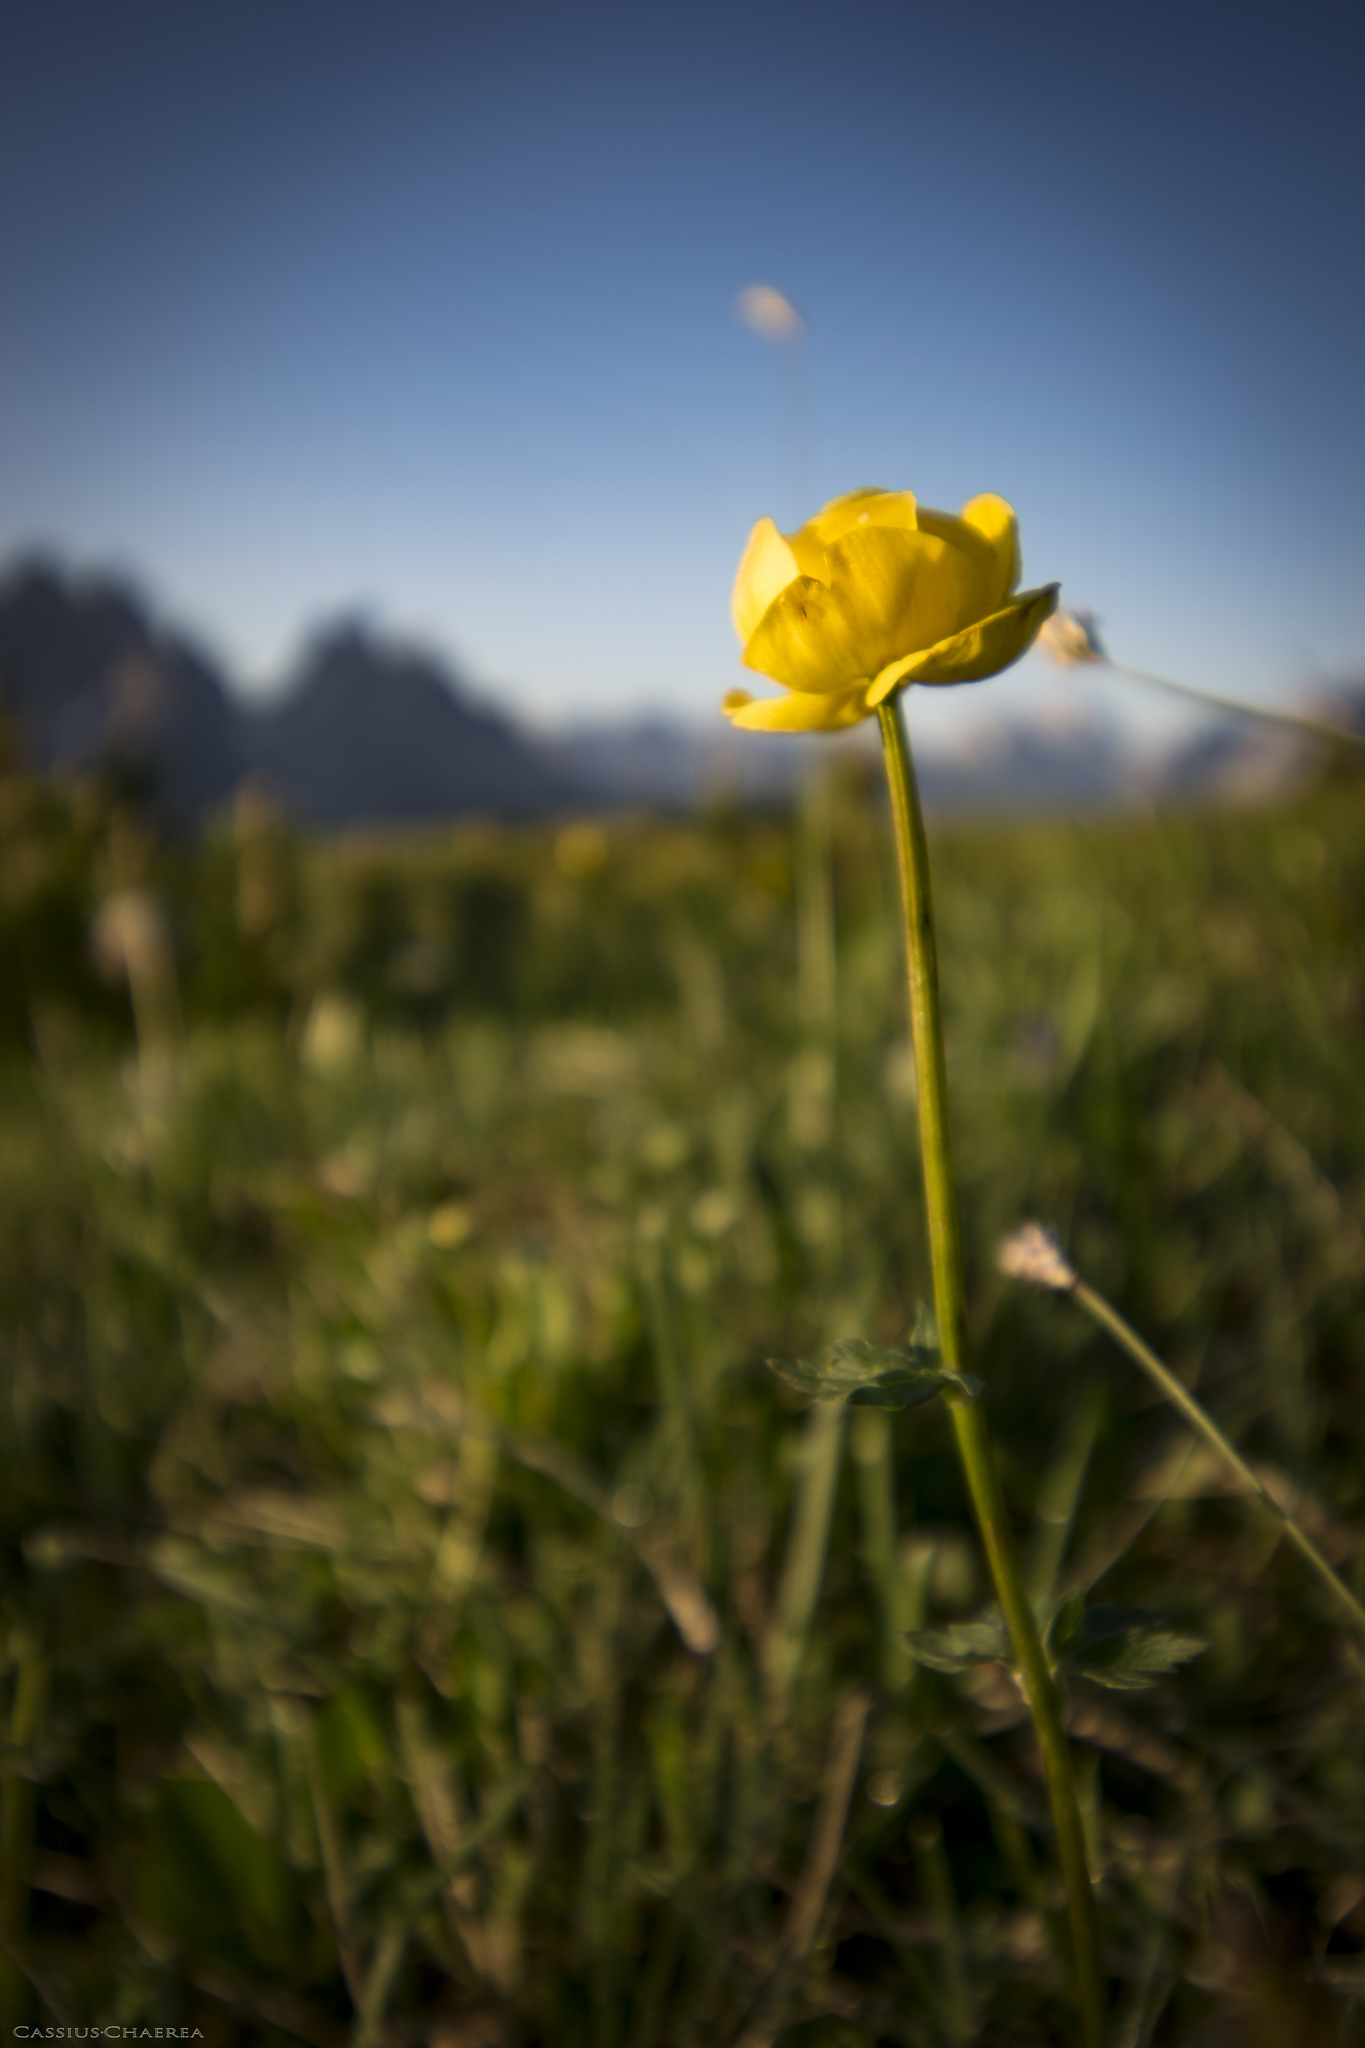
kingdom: Plantae
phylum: Tracheophyta
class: Magnoliopsida
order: Ranunculales
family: Ranunculaceae
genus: Trollius
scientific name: Trollius europaeus
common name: European globeflower
